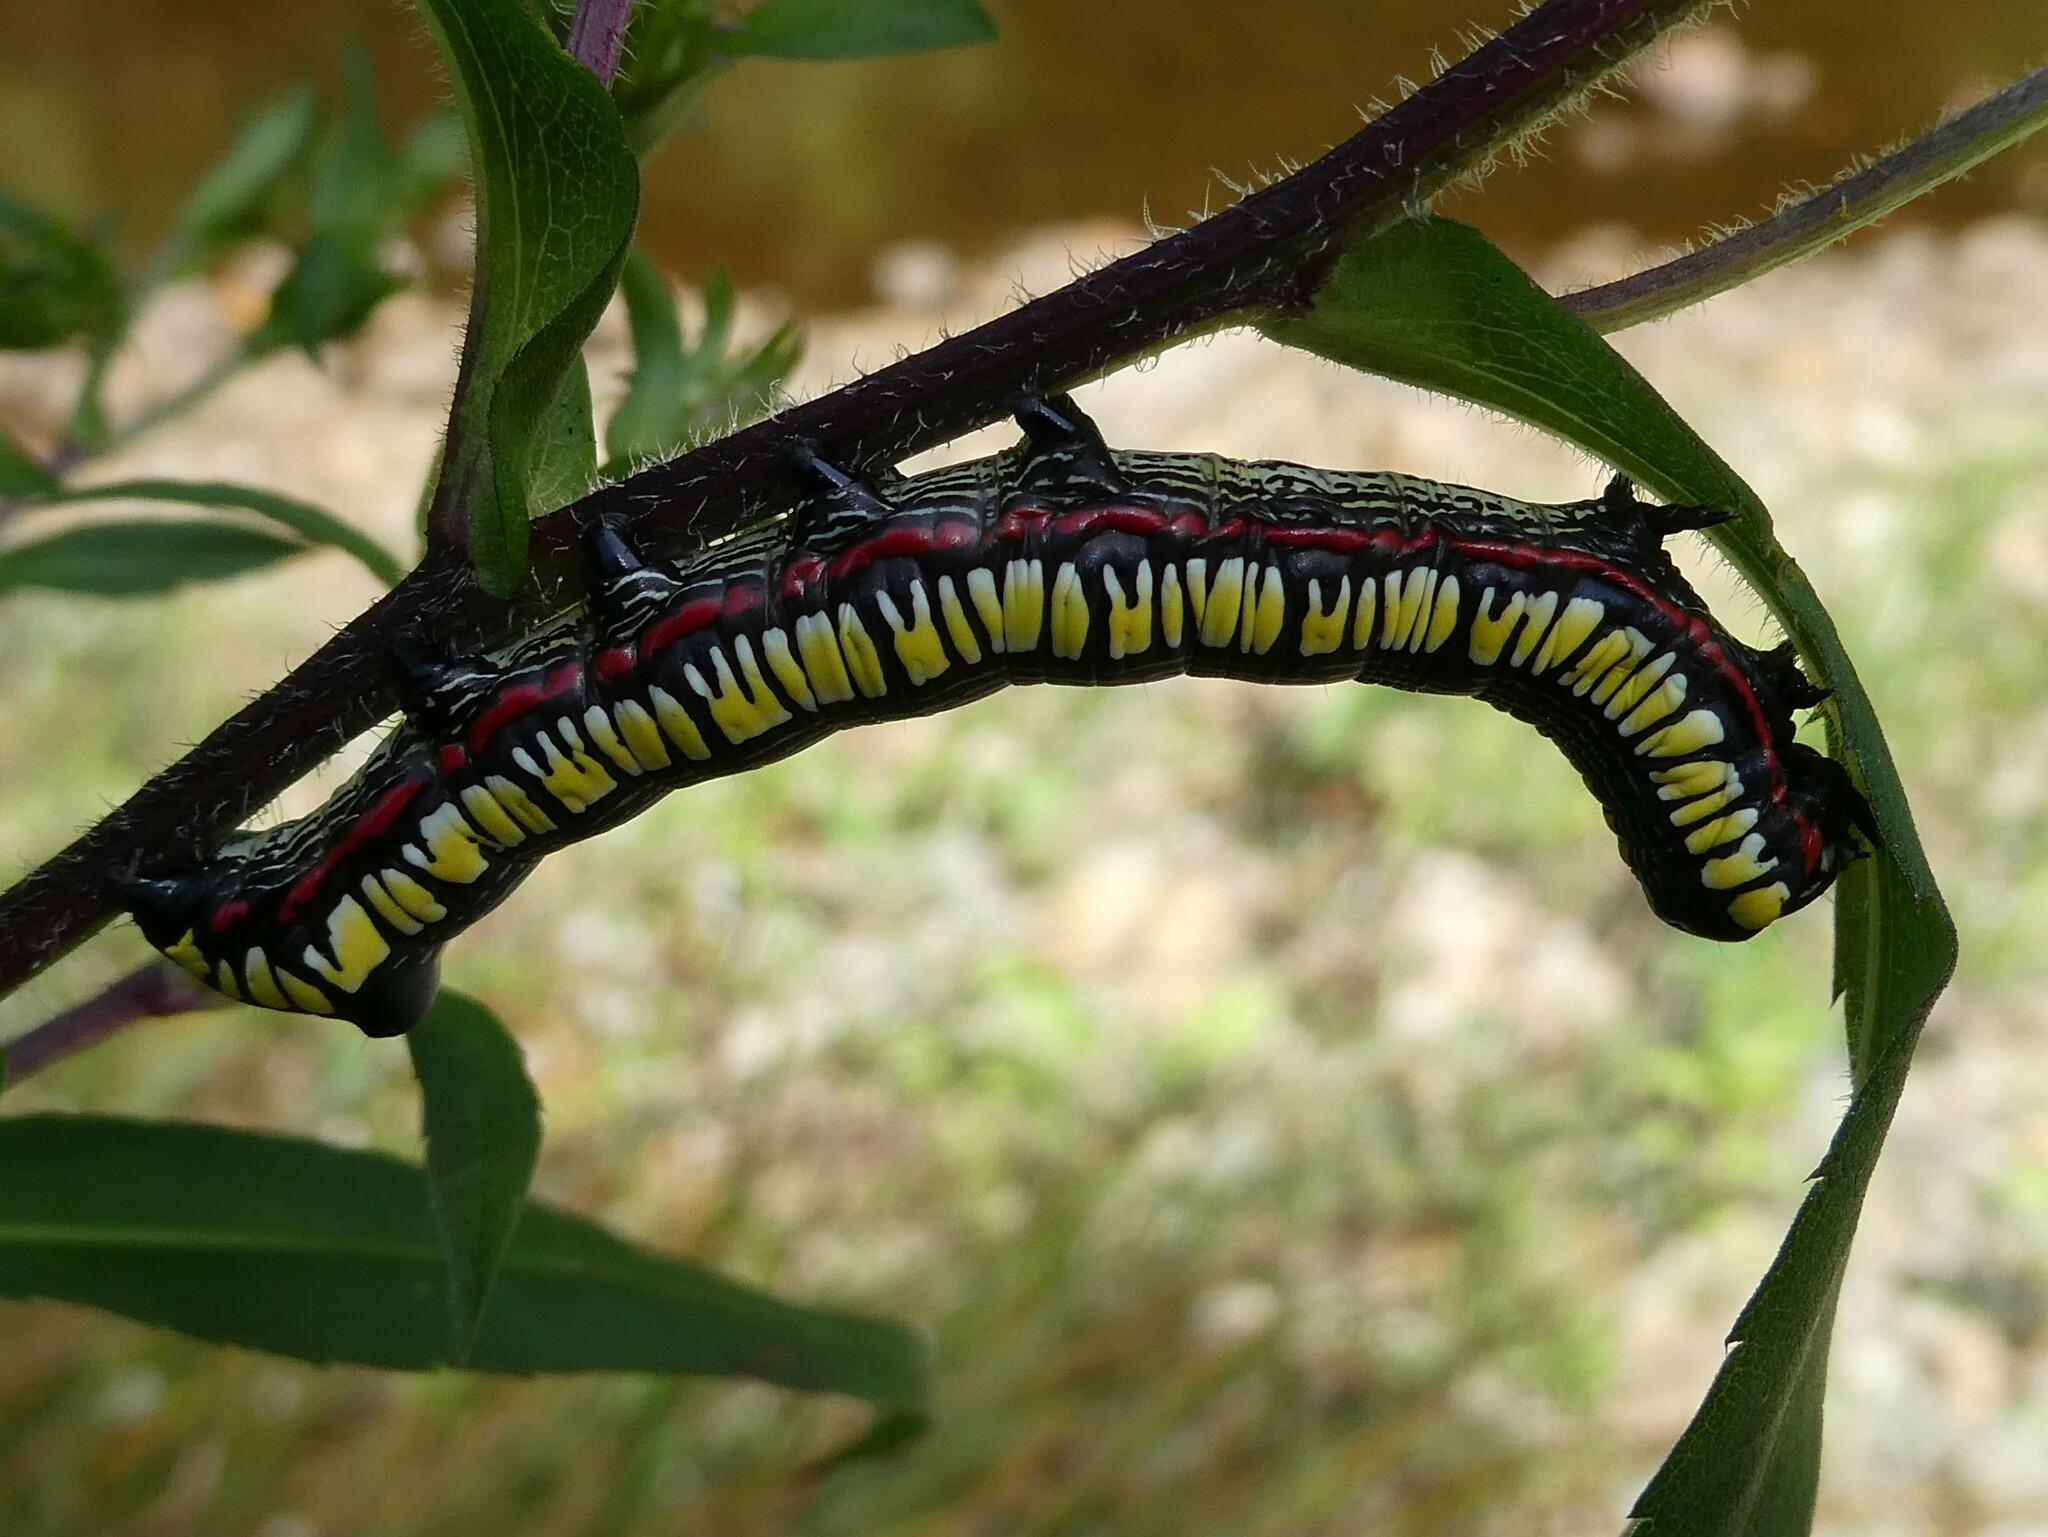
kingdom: Animalia
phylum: Arthropoda
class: Insecta
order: Lepidoptera
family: Noctuidae
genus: Cucullia
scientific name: Cucullia convexipennis
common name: Brown-hooded owlet
